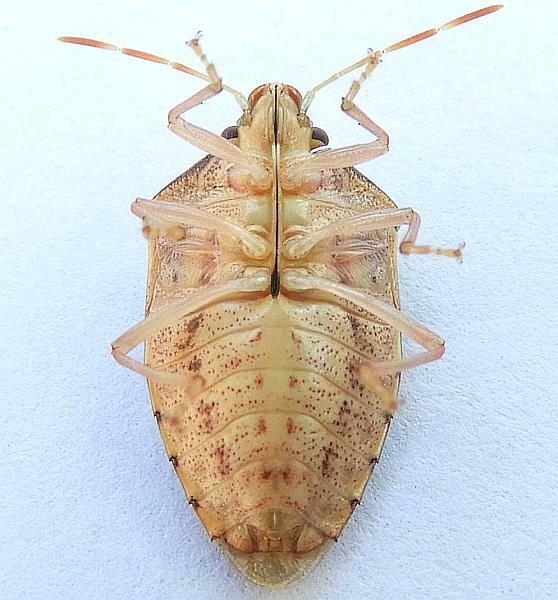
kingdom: Animalia
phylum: Arthropoda
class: Insecta
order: Hemiptera
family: Pentatomidae
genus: Banasa
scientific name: Banasa calva
